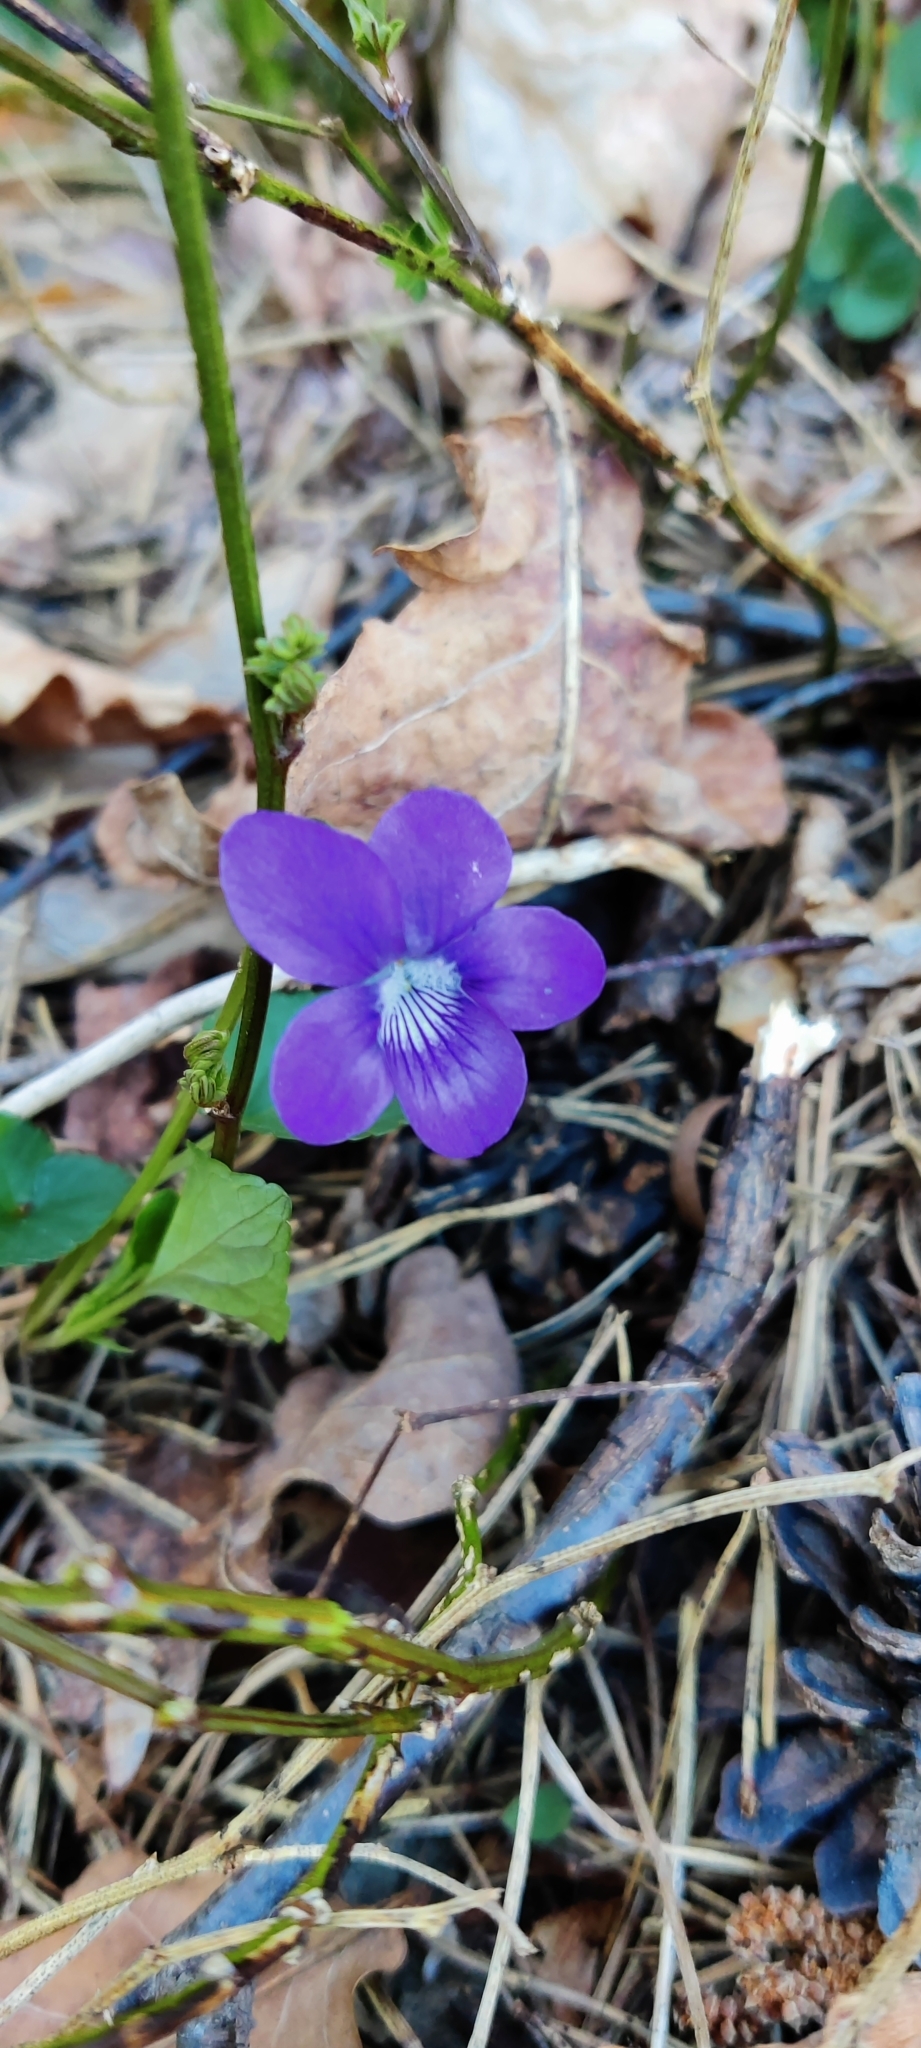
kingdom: Plantae
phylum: Tracheophyta
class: Magnoliopsida
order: Malpighiales
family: Violaceae
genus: Viola
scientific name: Viola riviniana
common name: Common dog-violet
